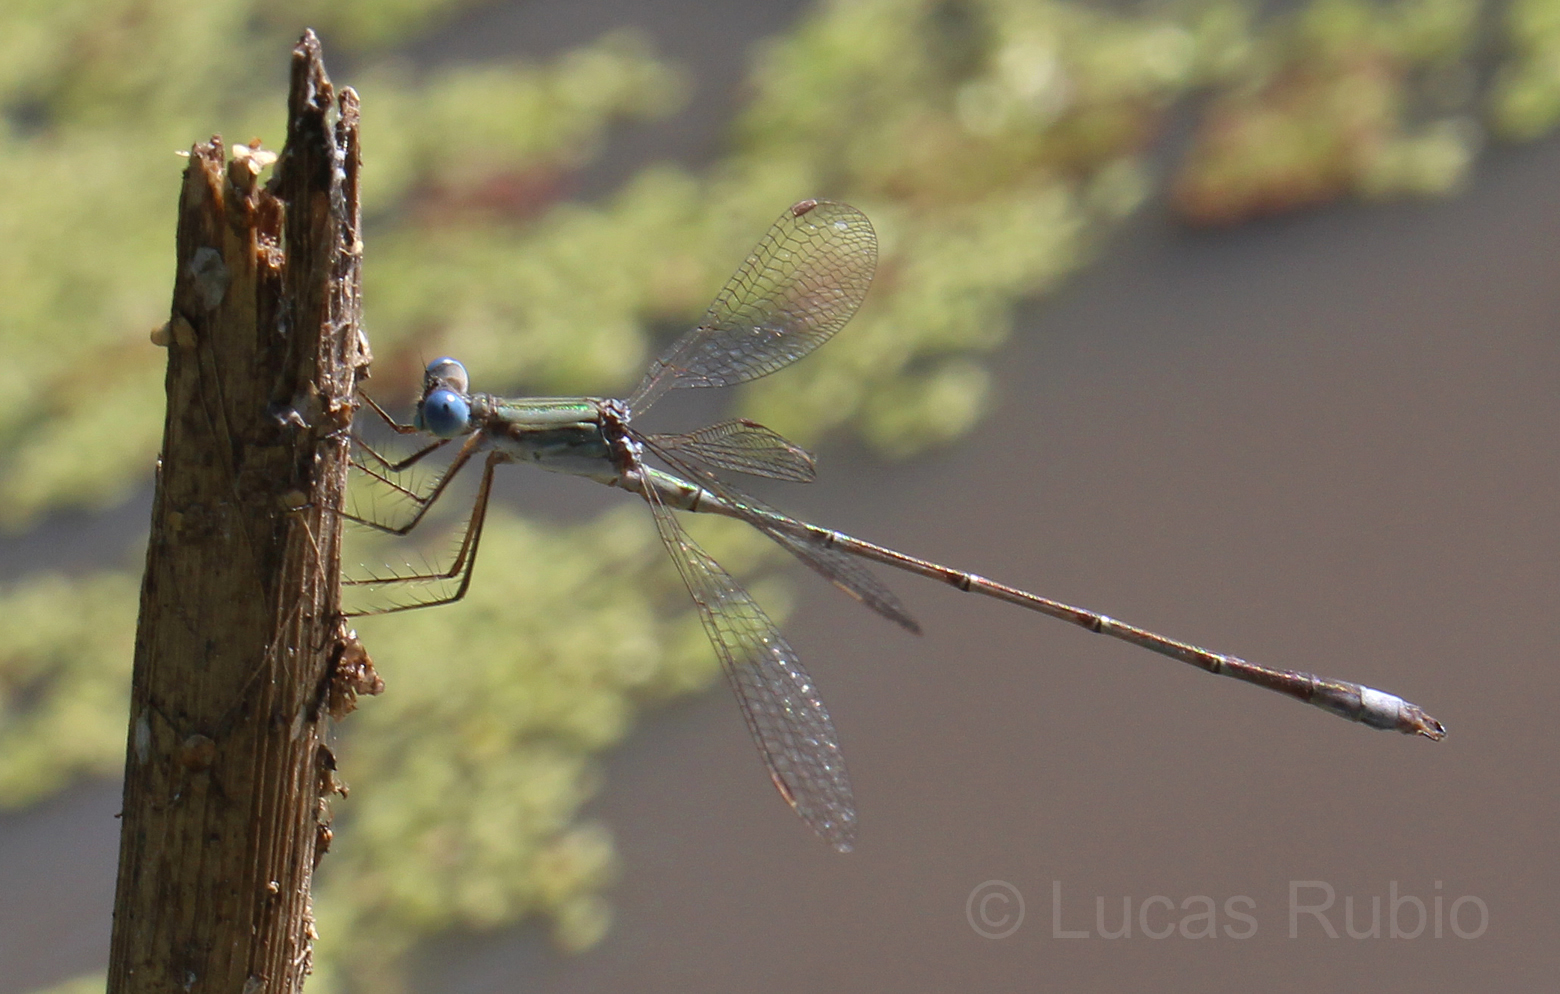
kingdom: Animalia
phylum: Arthropoda
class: Insecta
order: Odonata
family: Lestidae
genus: Lestes
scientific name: Lestes spatula
